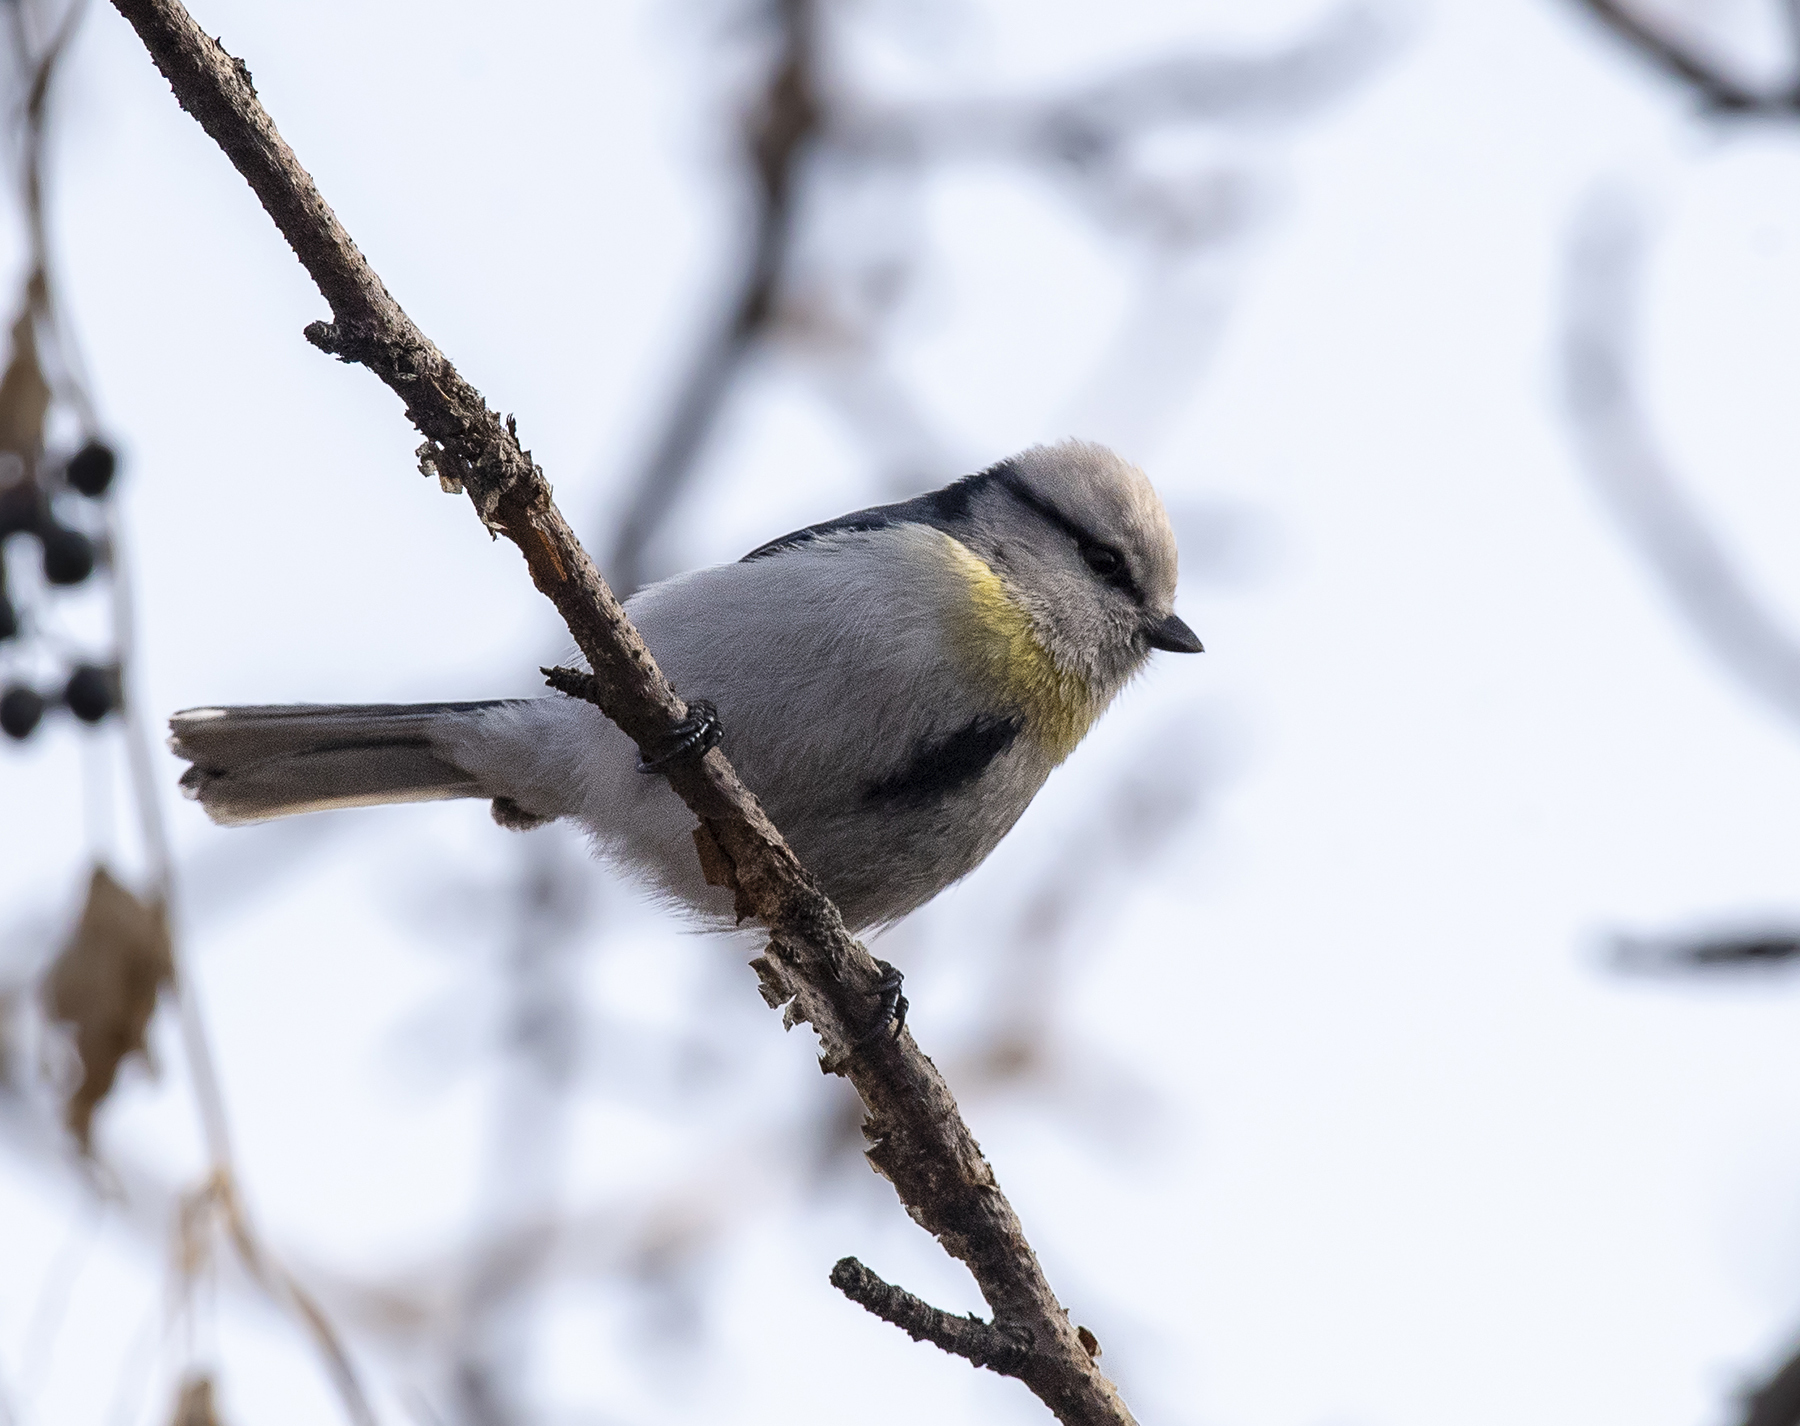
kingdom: Animalia
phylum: Chordata
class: Aves
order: Passeriformes
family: Paridae
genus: Cyanistes
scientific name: Cyanistes cyanus
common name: Azure tit
